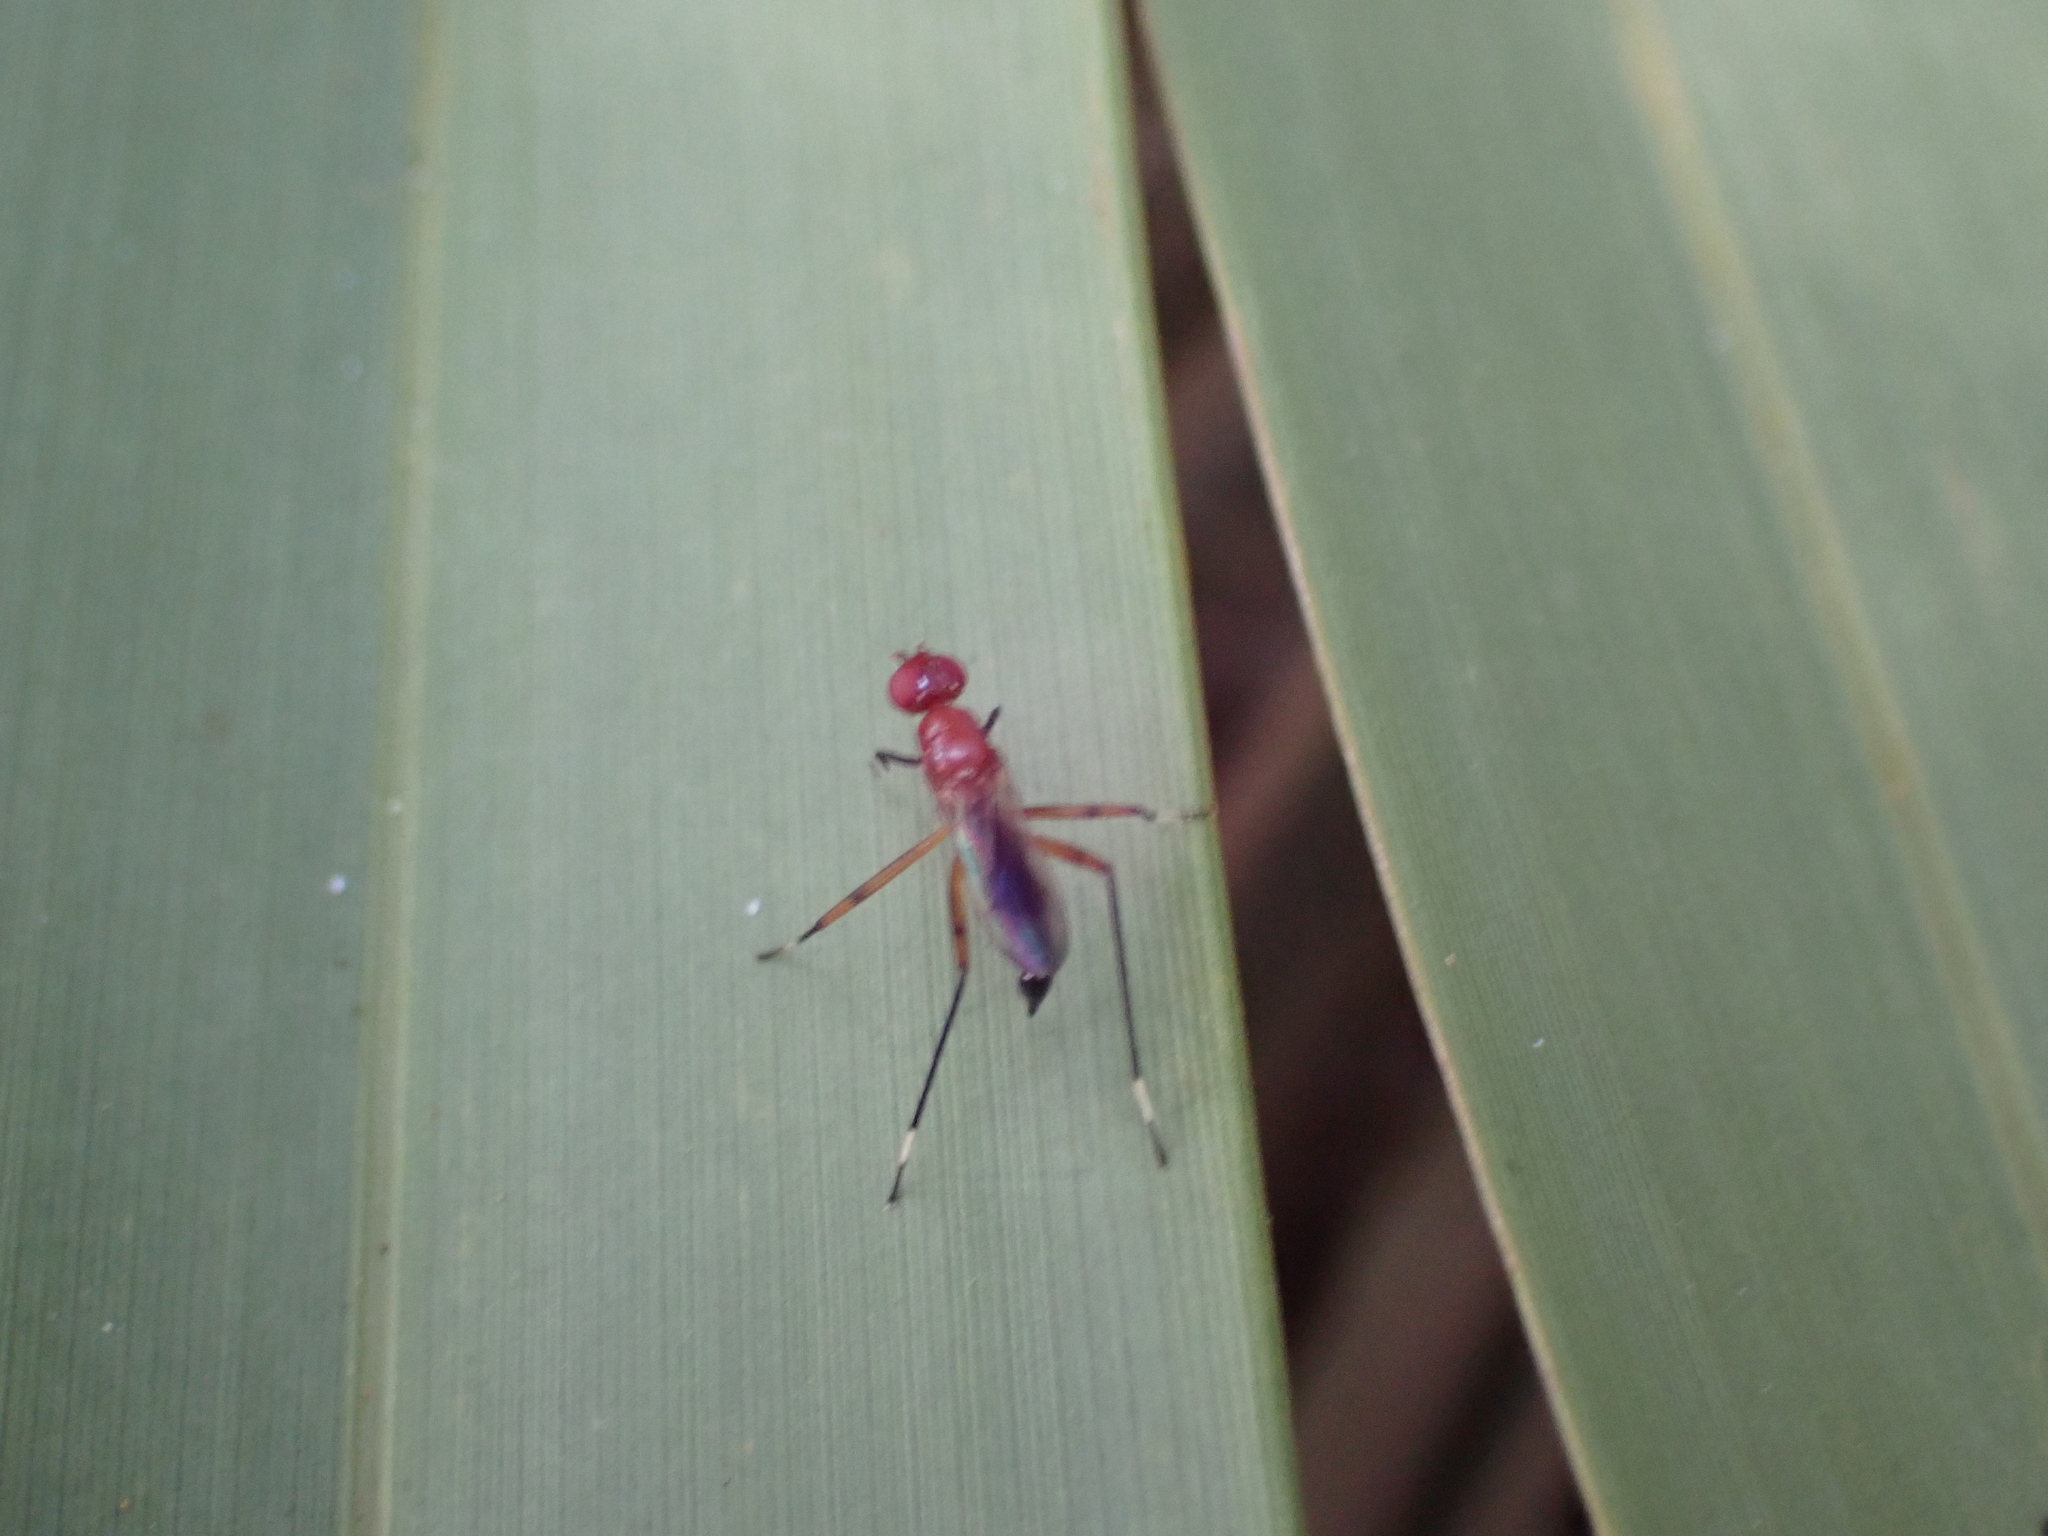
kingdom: Animalia
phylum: Arthropoda
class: Insecta
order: Diptera
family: Micropezidae
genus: Grallipeza
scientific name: Grallipeza nebulosa
